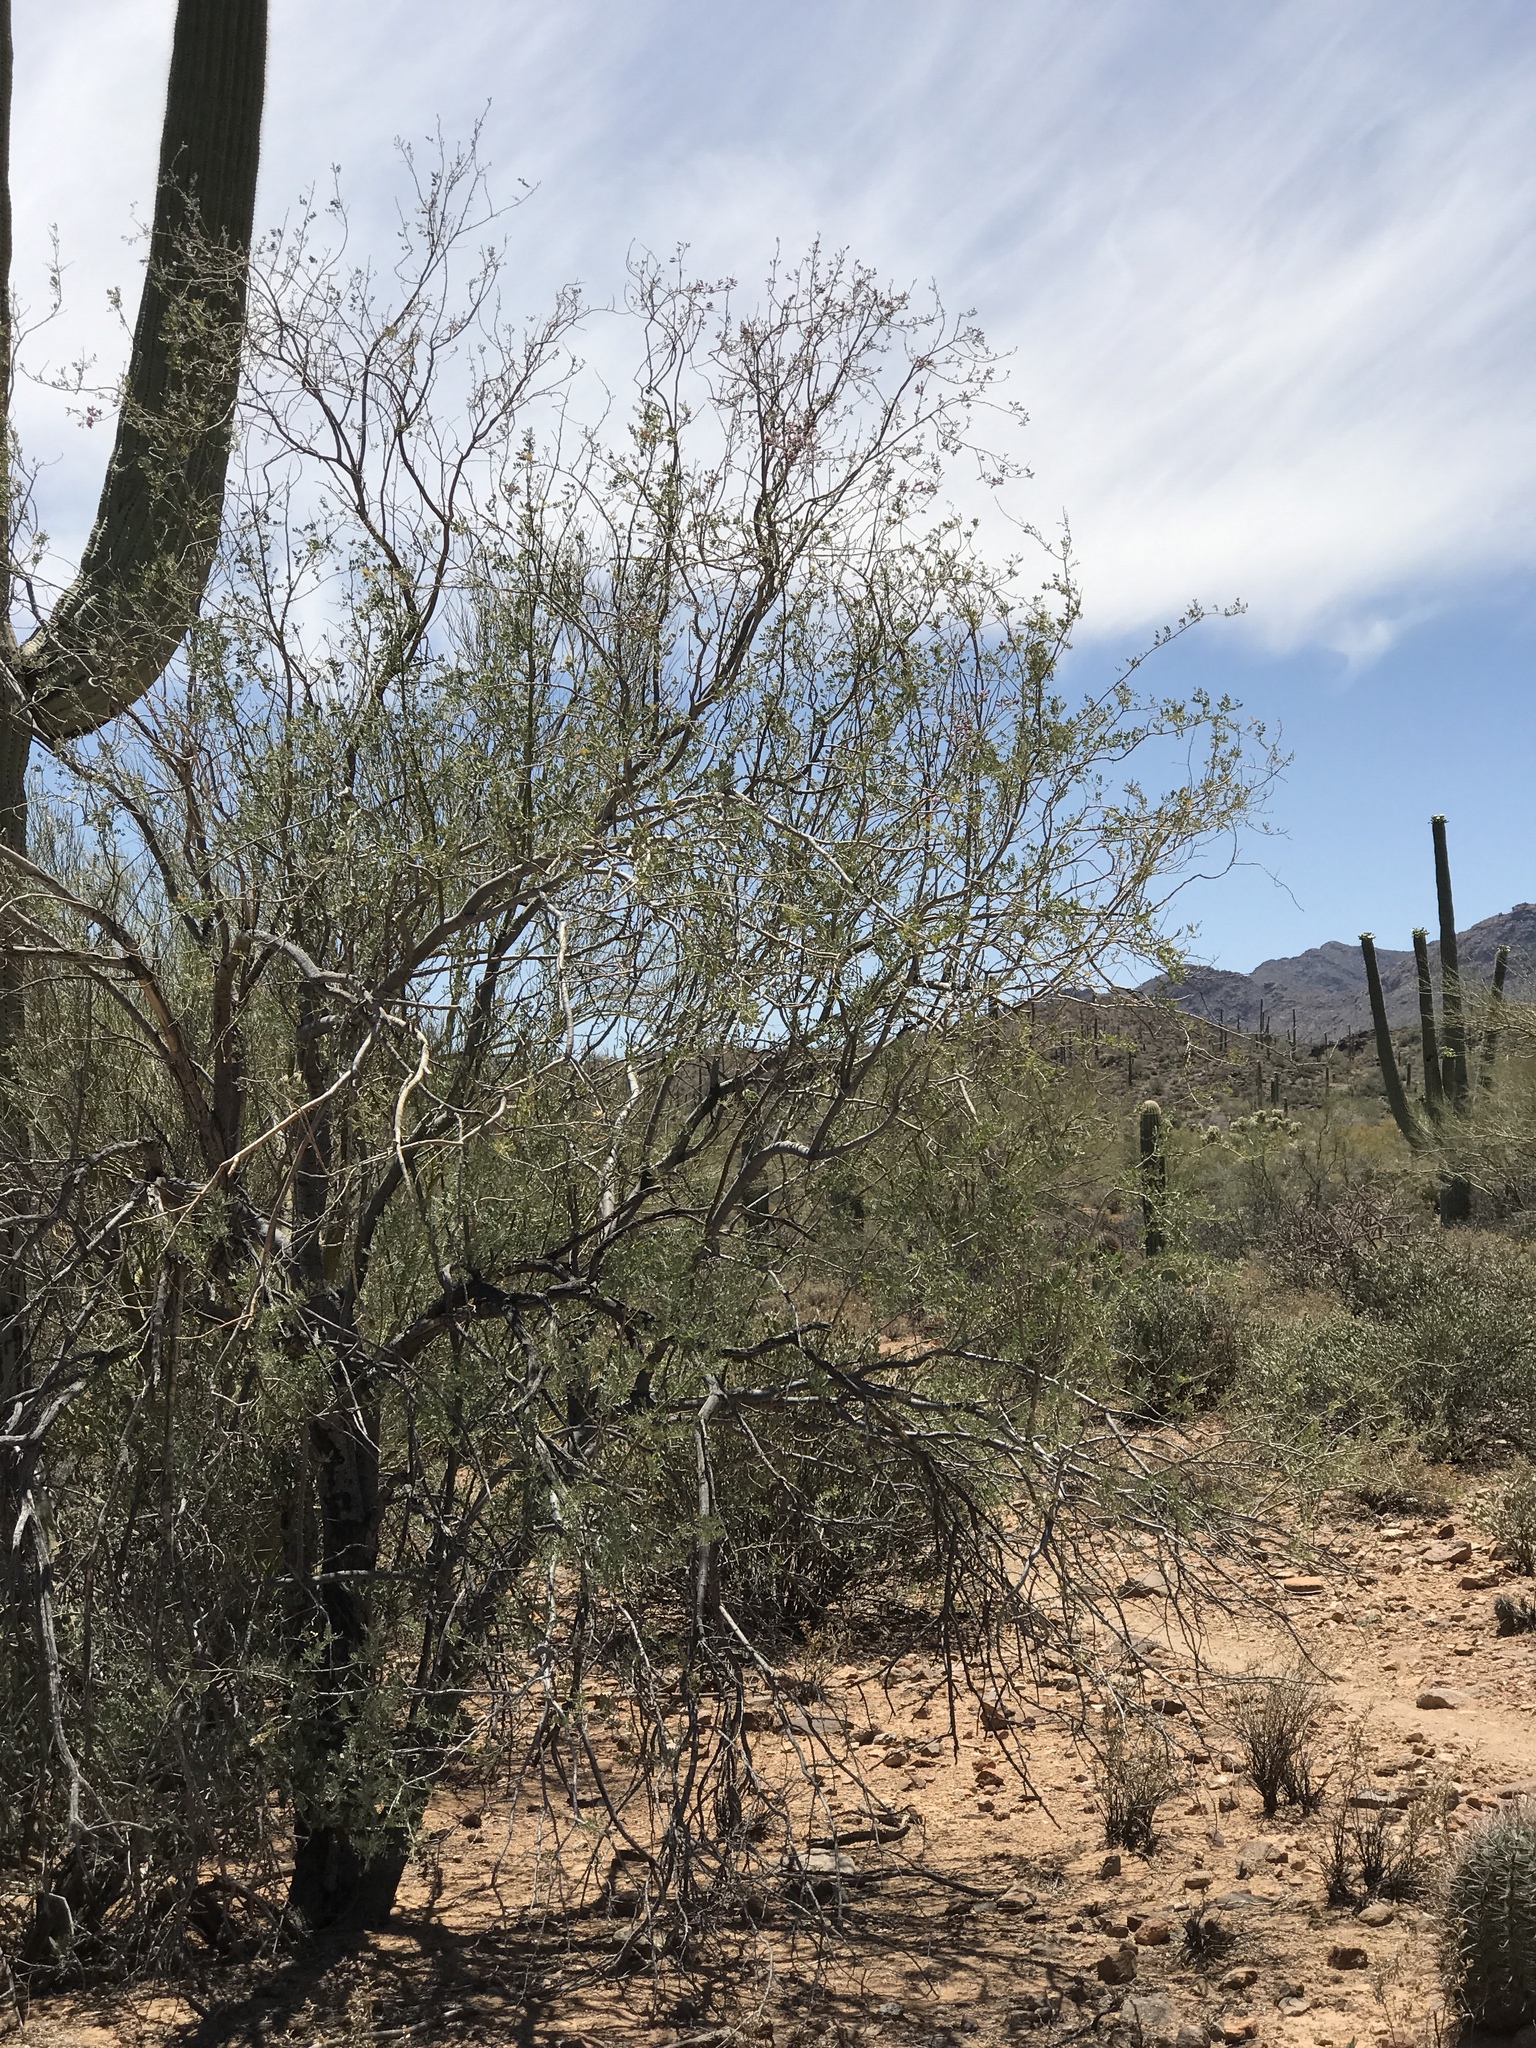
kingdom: Plantae
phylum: Tracheophyta
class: Magnoliopsida
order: Fabales
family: Fabaceae
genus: Olneya
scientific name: Olneya tesota
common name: Desert ironwood
